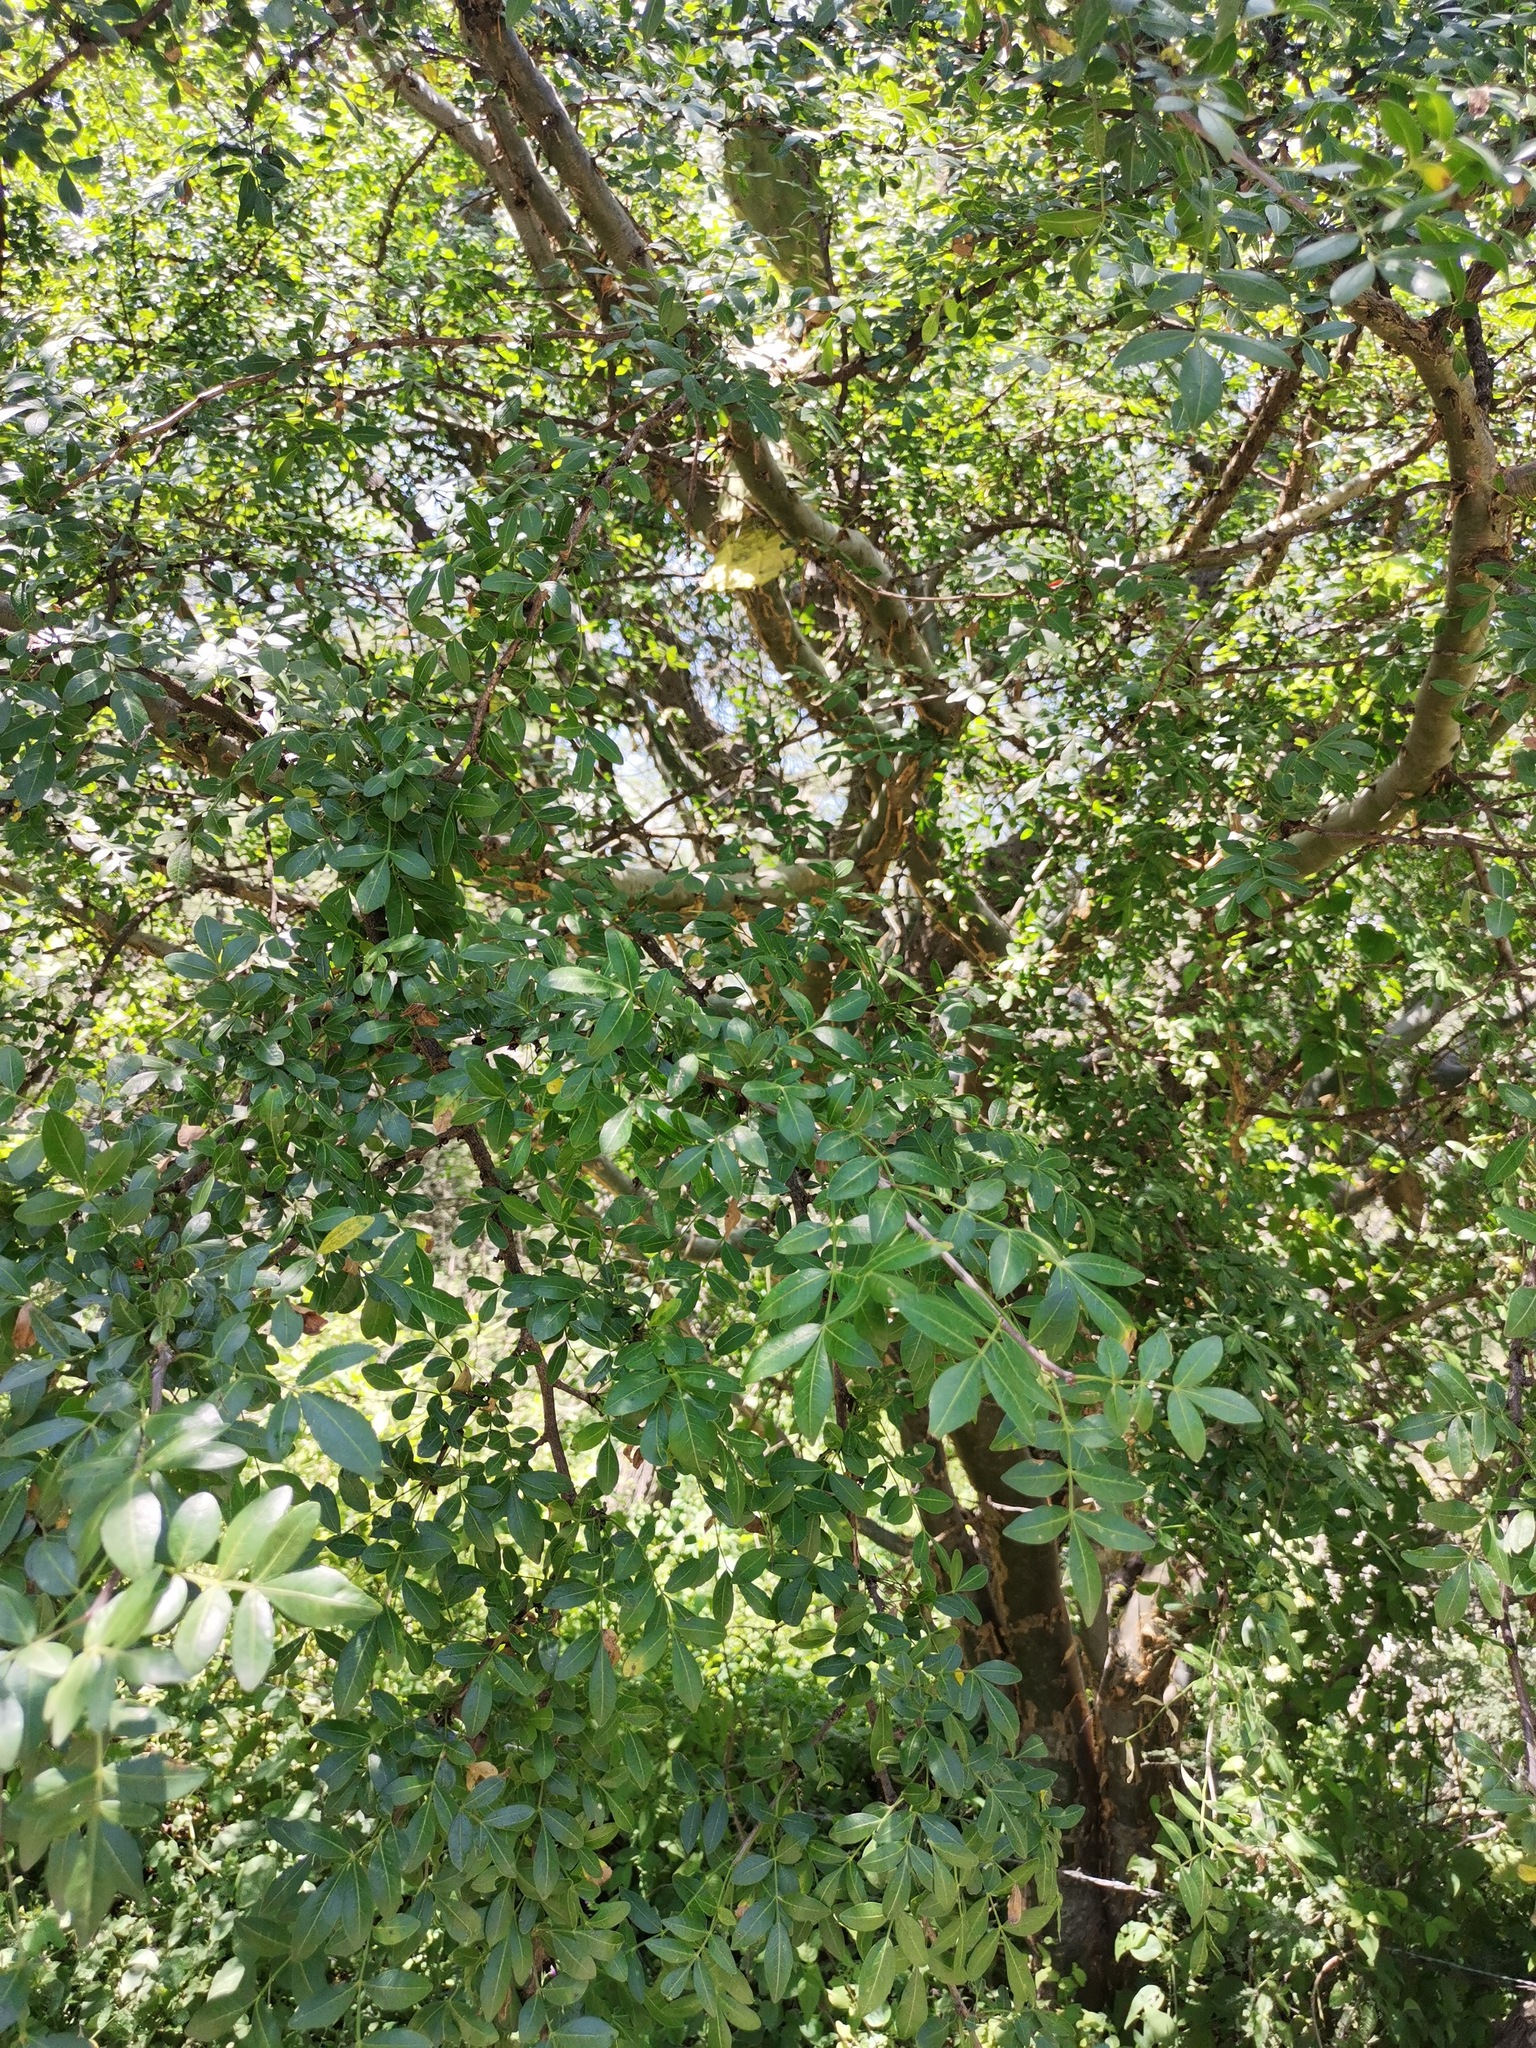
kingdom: Plantae
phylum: Tracheophyta
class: Magnoliopsida
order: Sapindales
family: Burseraceae
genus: Bursera
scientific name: Bursera fagaroides
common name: Elephant tree
